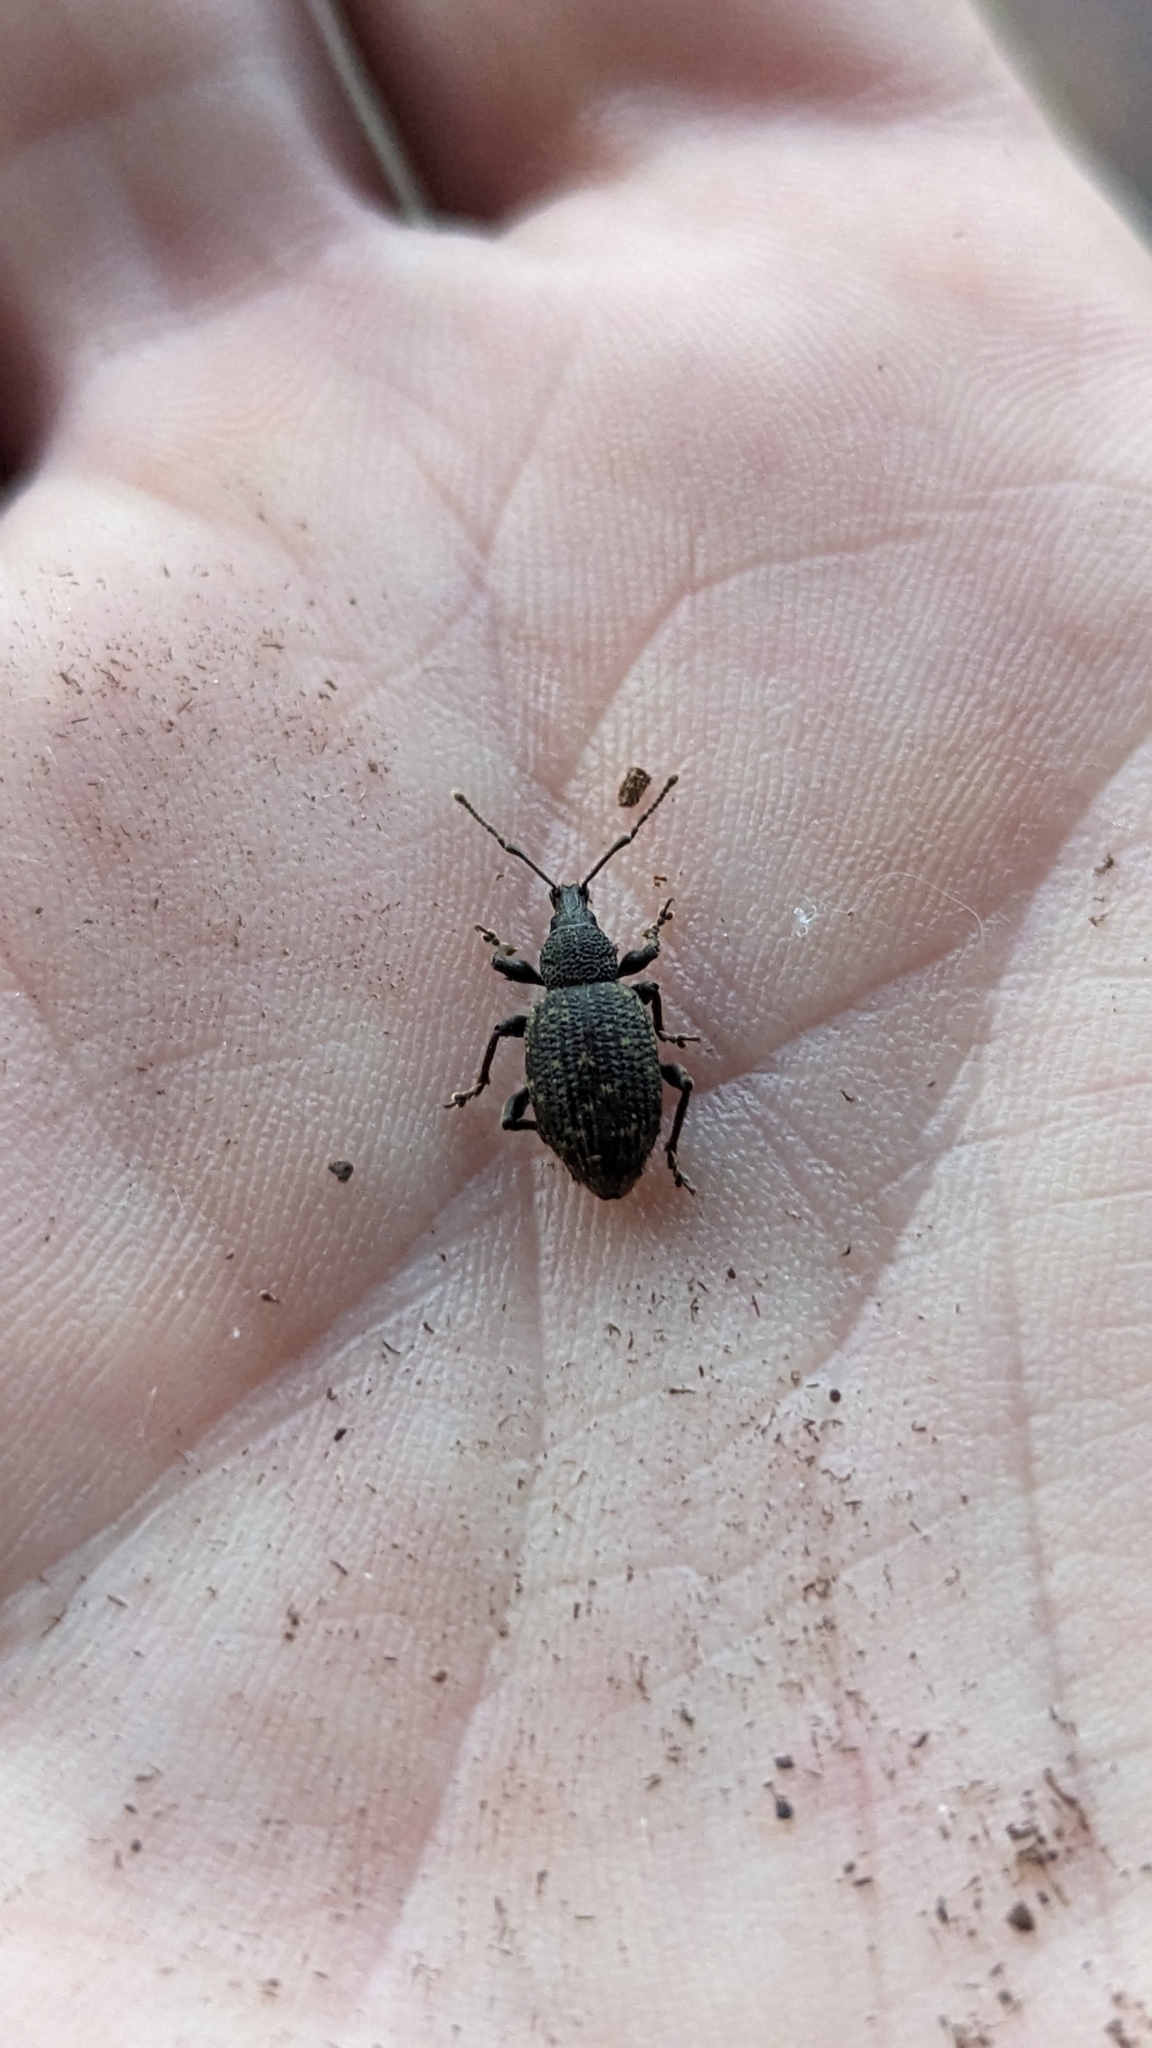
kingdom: Animalia
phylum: Arthropoda
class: Insecta
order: Coleoptera
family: Curculionidae
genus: Otiorhynchus
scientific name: Otiorhynchus sulcatus
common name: Black vine weevil
